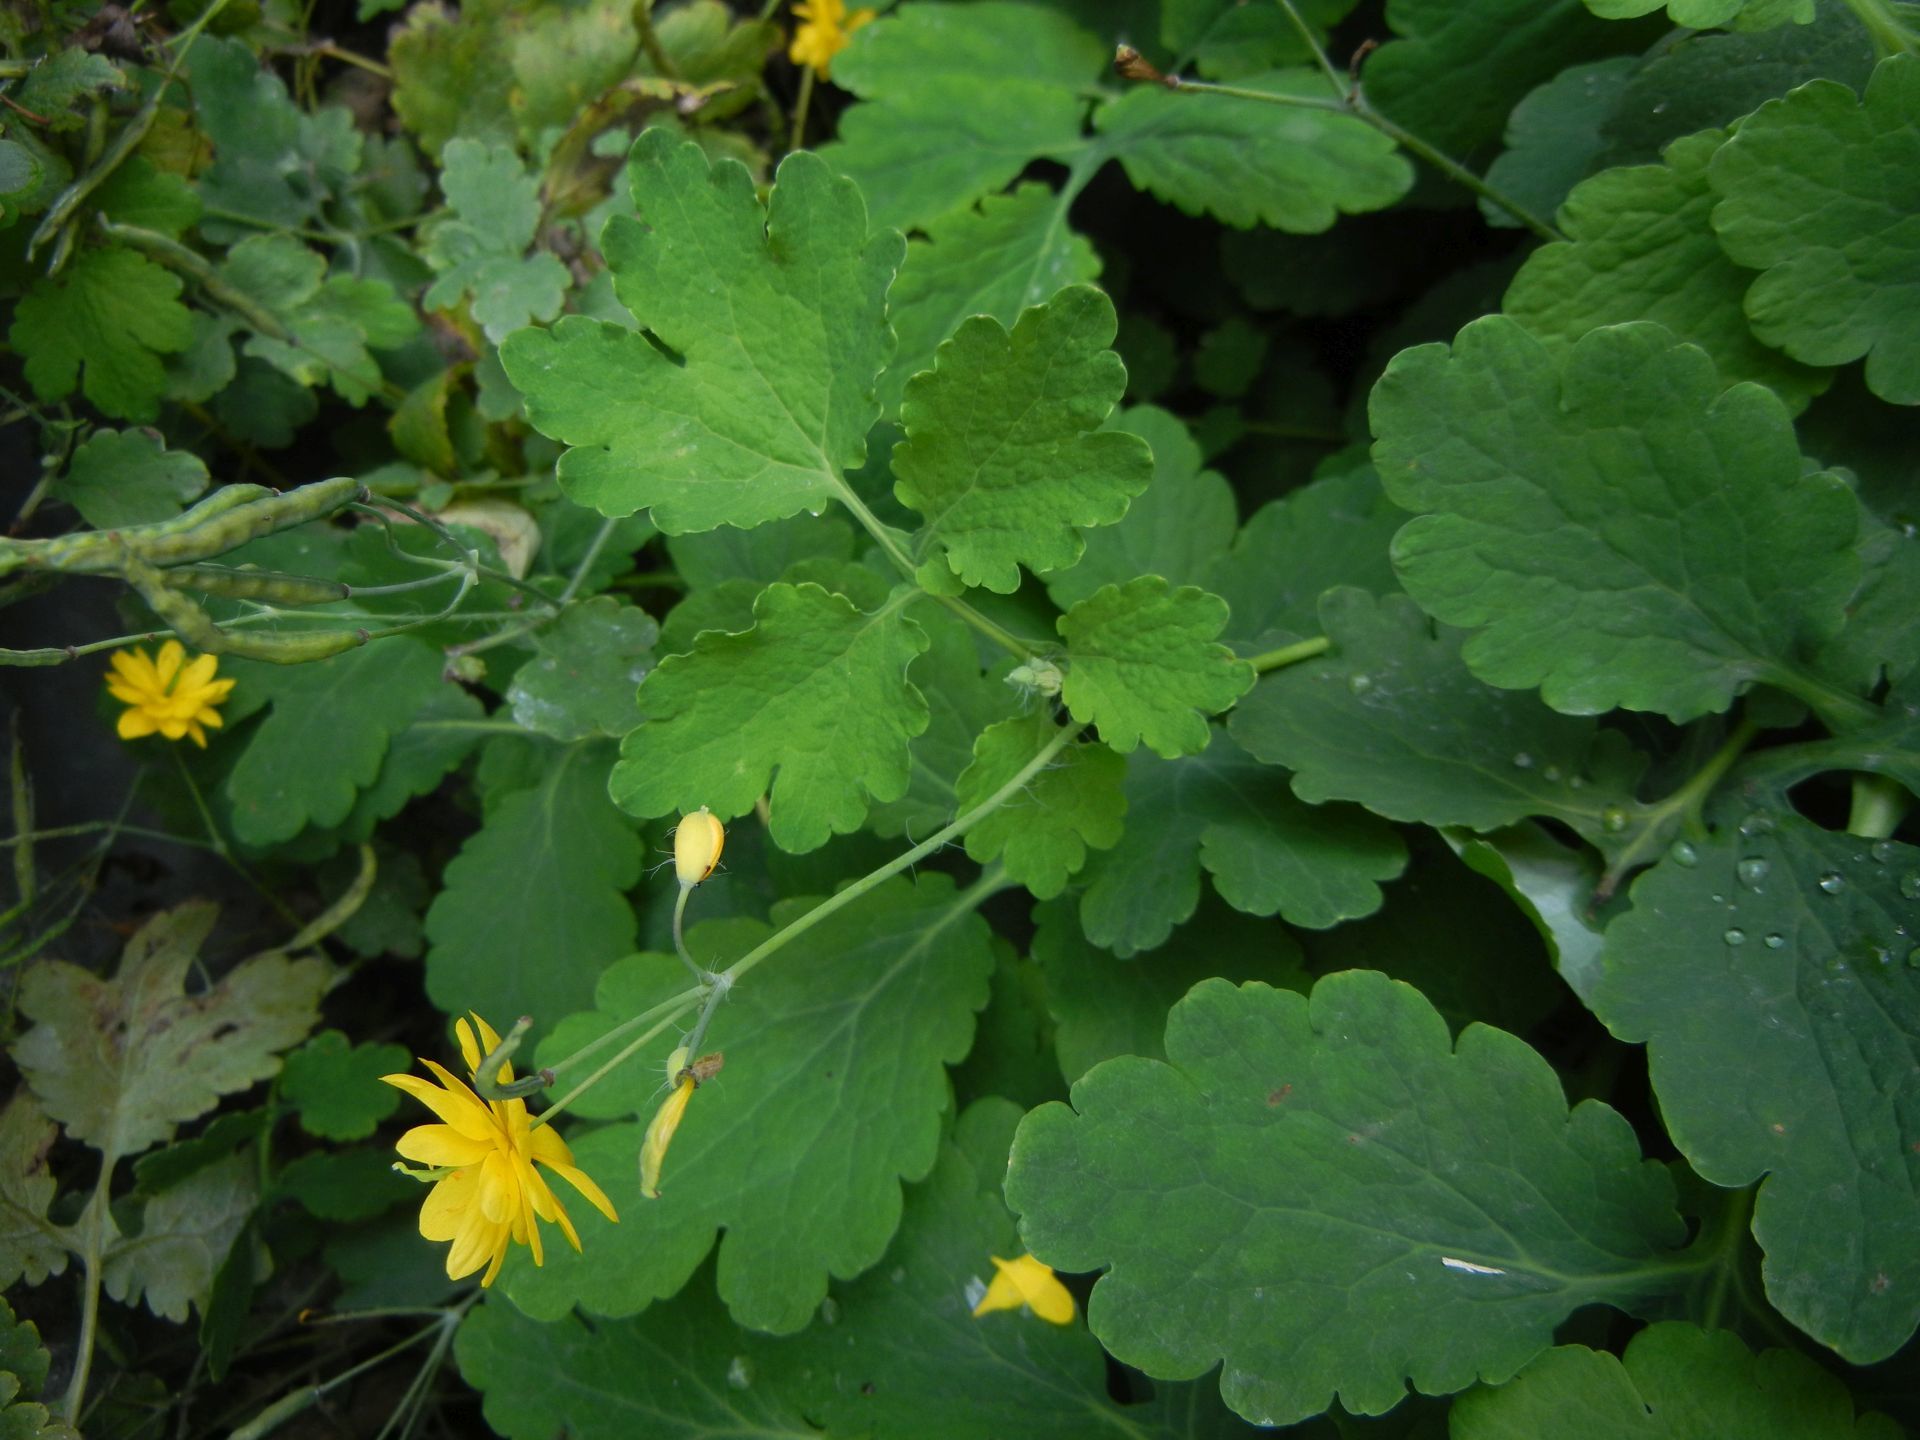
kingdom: Plantae
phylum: Tracheophyta
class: Magnoliopsida
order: Ranunculales
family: Papaveraceae
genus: Chelidonium
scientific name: Chelidonium majus
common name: Greater celandine
